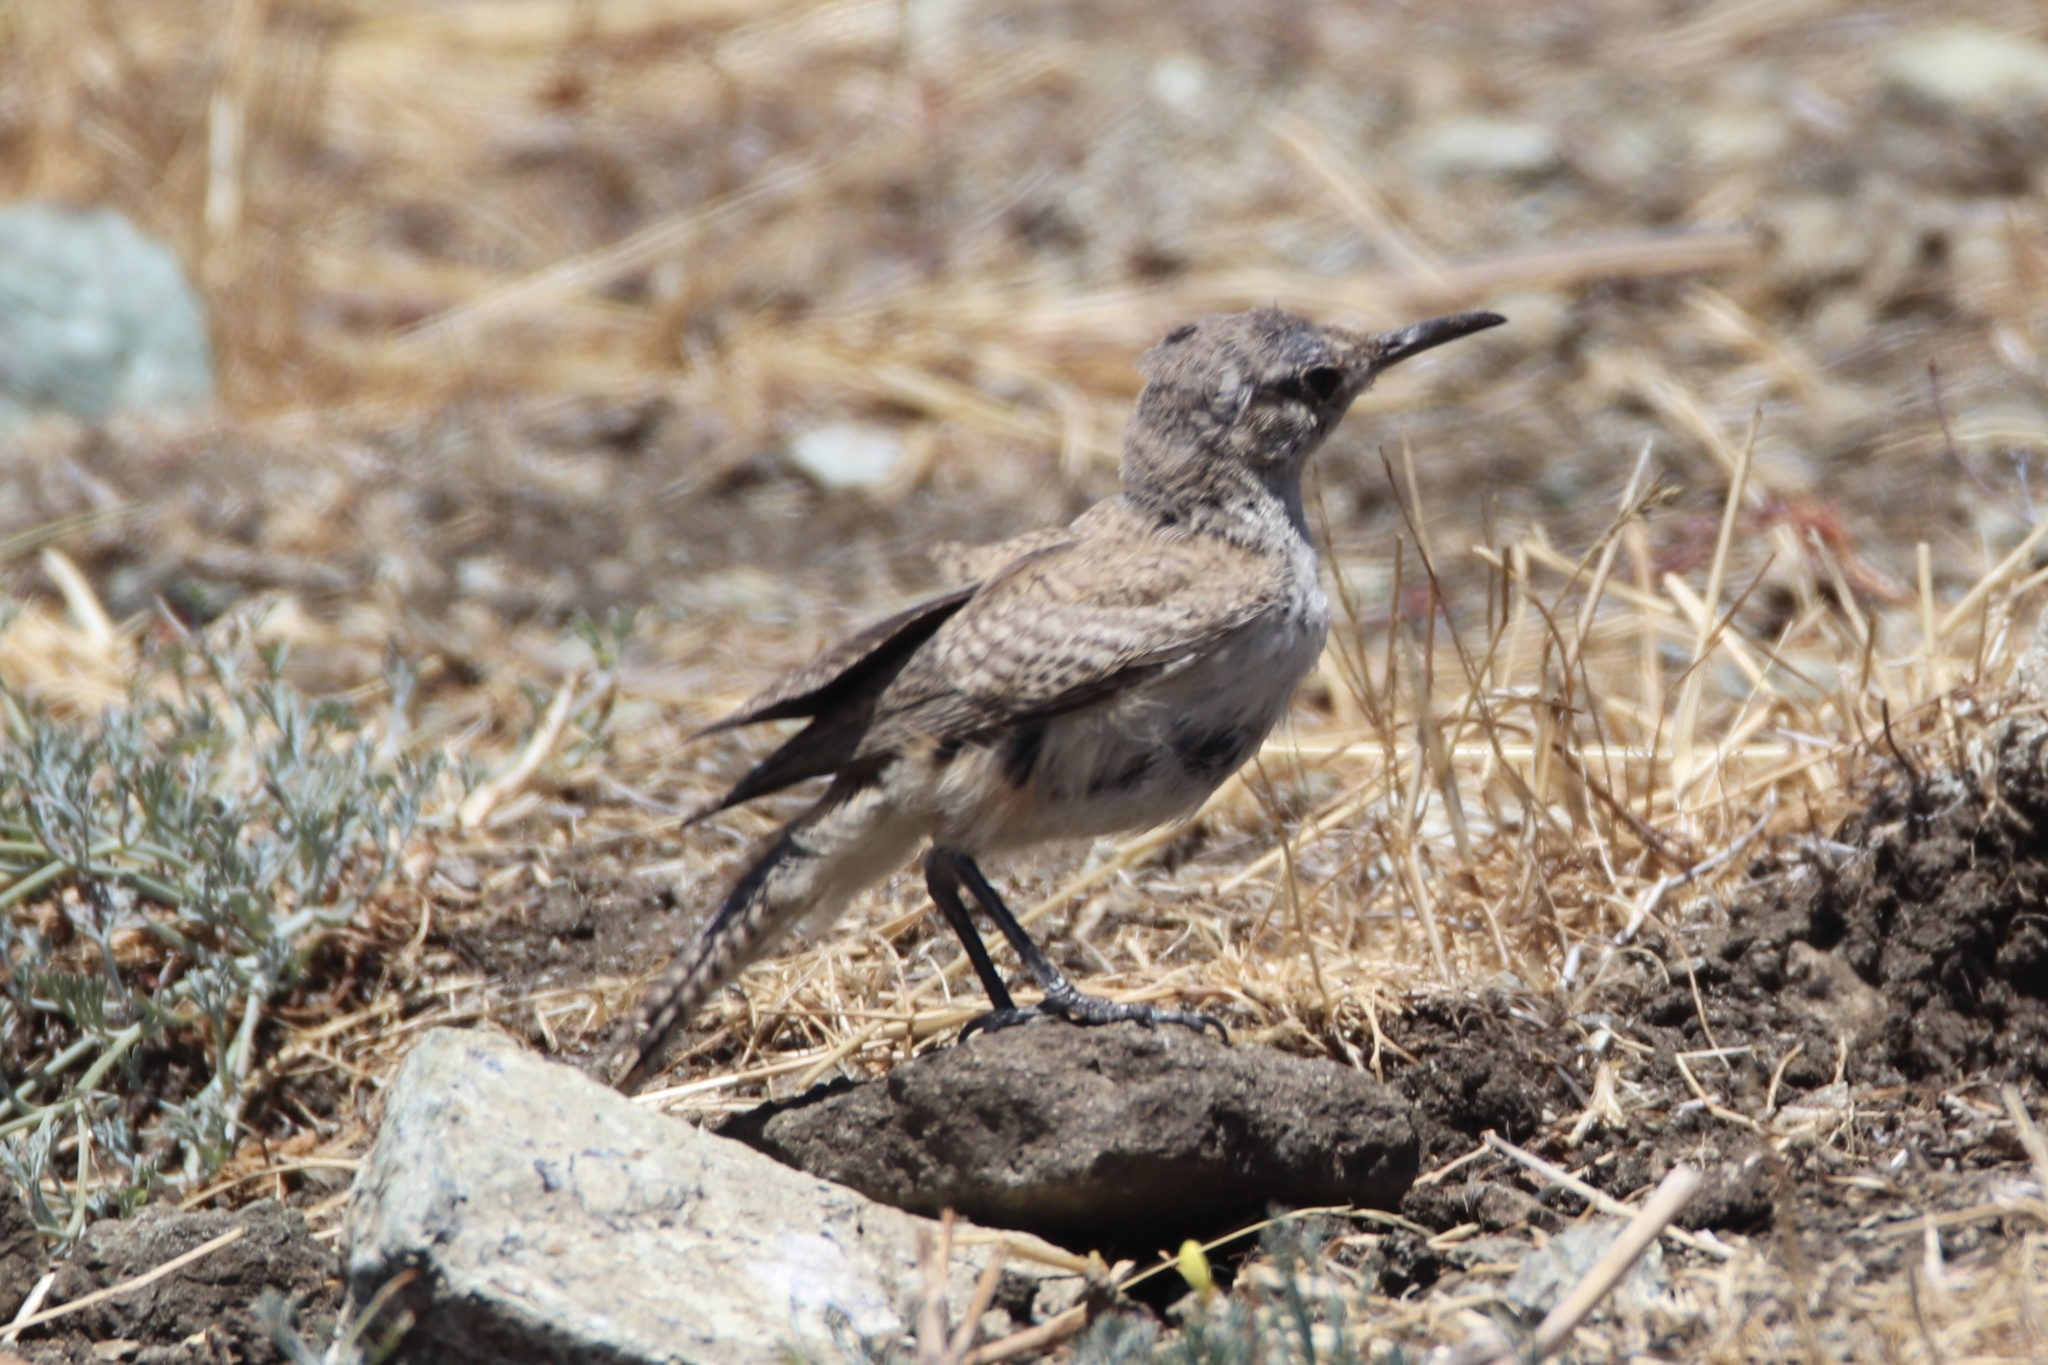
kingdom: Animalia
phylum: Chordata
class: Aves
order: Passeriformes
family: Troglodytidae
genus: Salpinctes
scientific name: Salpinctes obsoletus
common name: Rock wren
